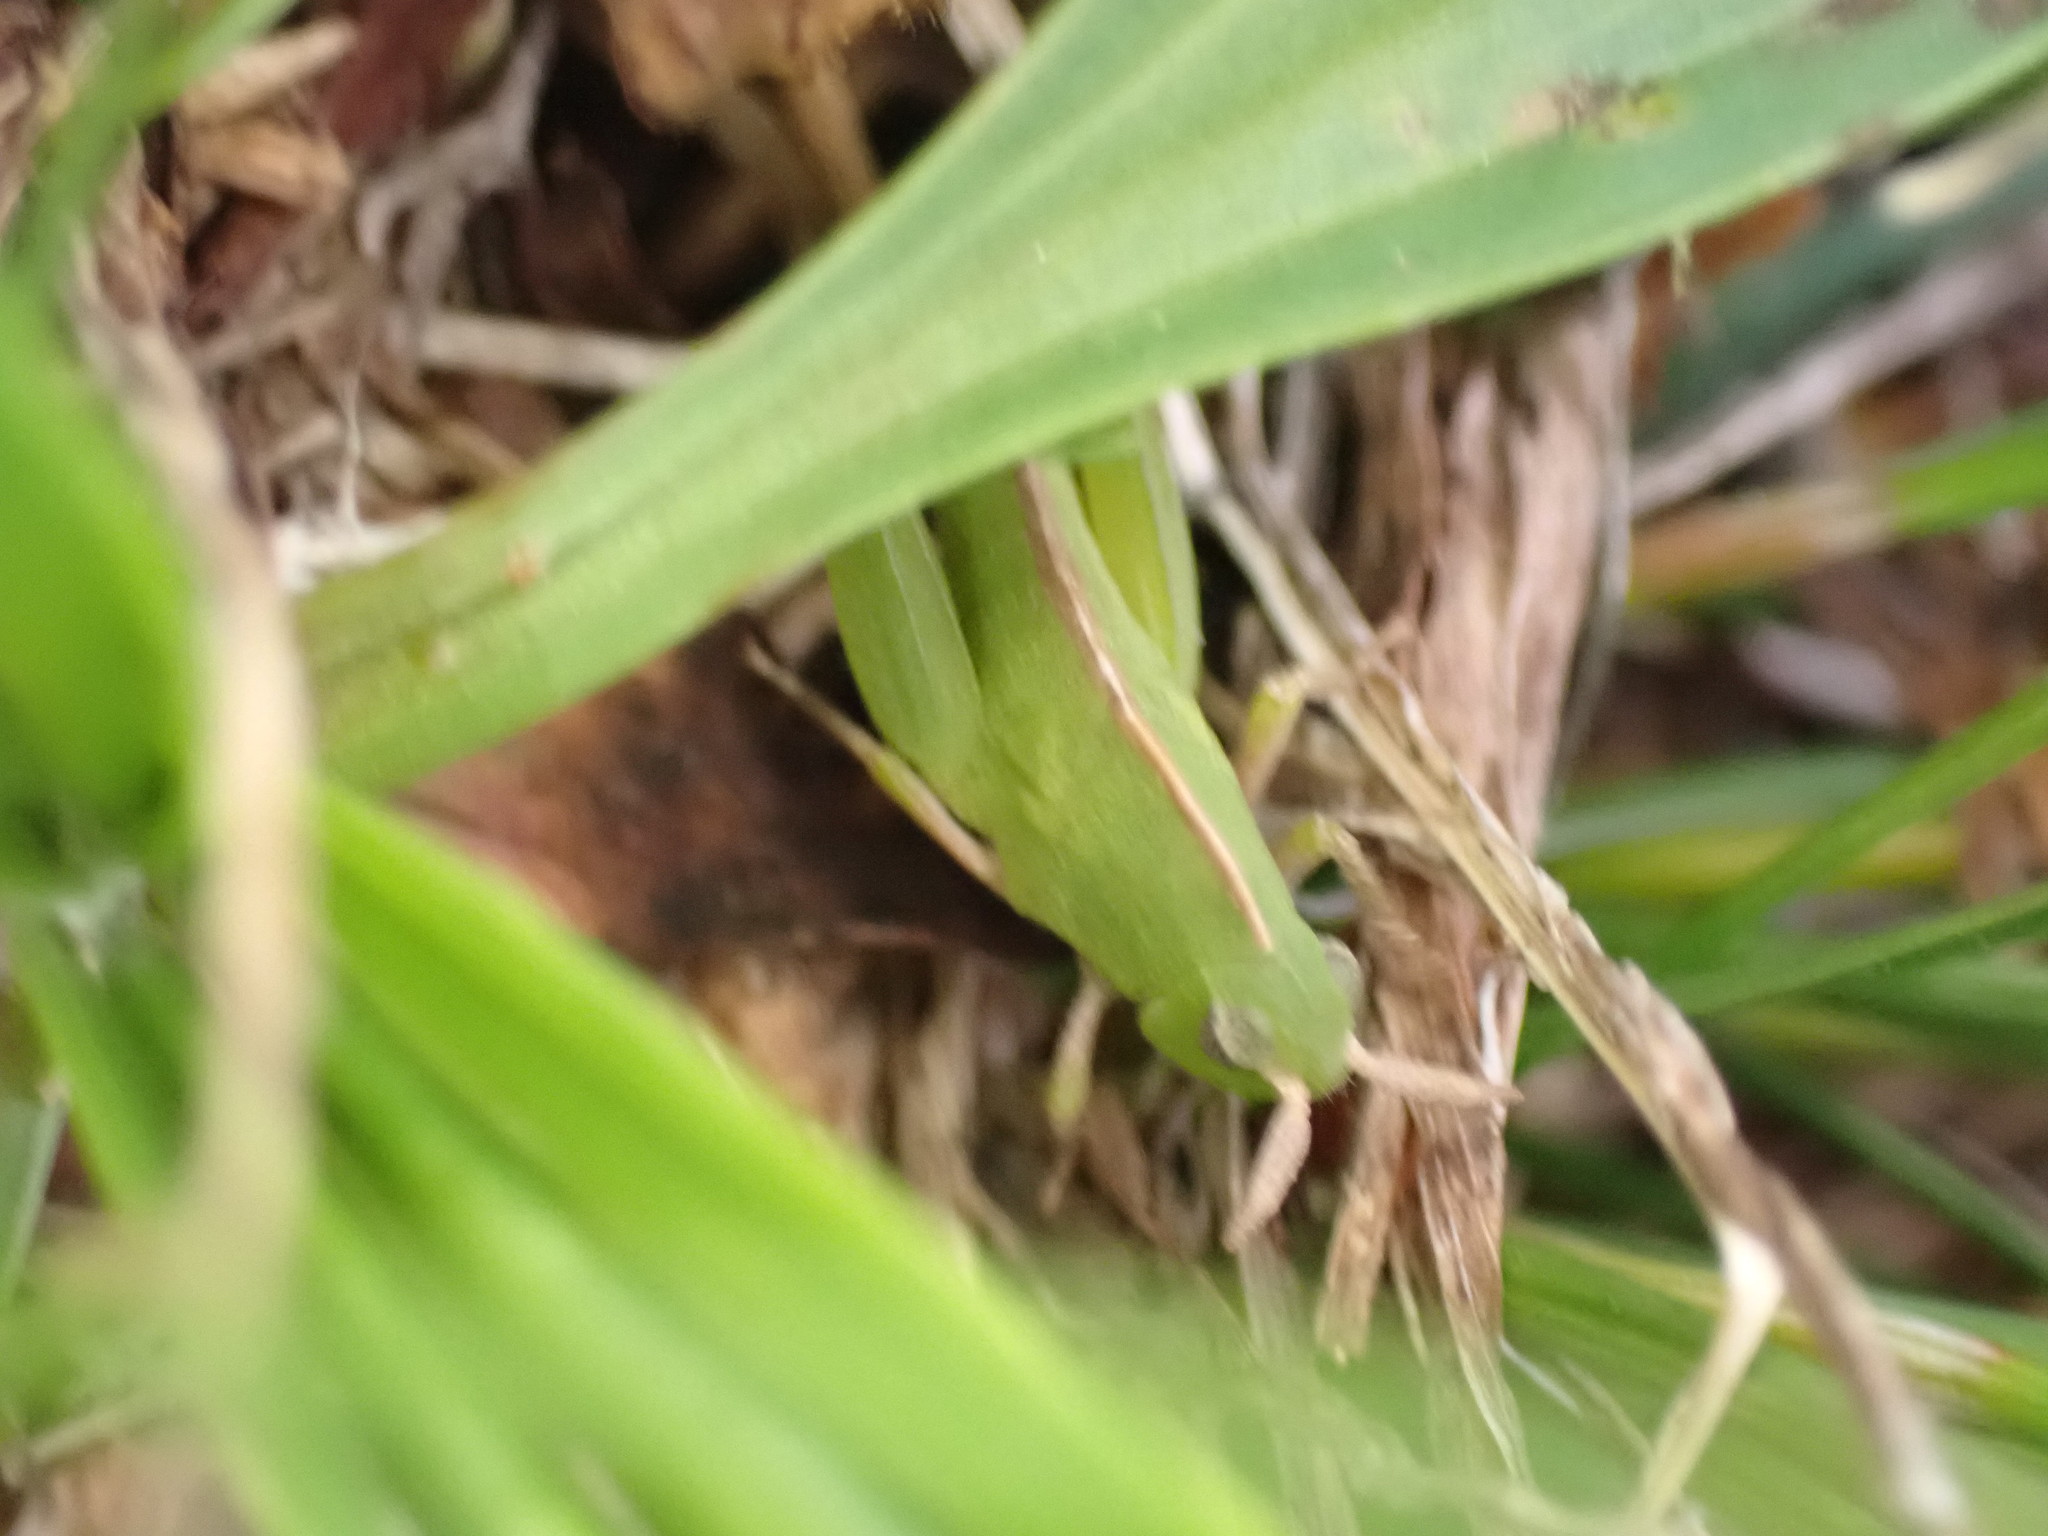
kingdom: Animalia
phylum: Arthropoda
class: Insecta
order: Orthoptera
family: Acrididae
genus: Chortophaga
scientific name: Chortophaga viridifasciata
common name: Green-striped grasshopper
